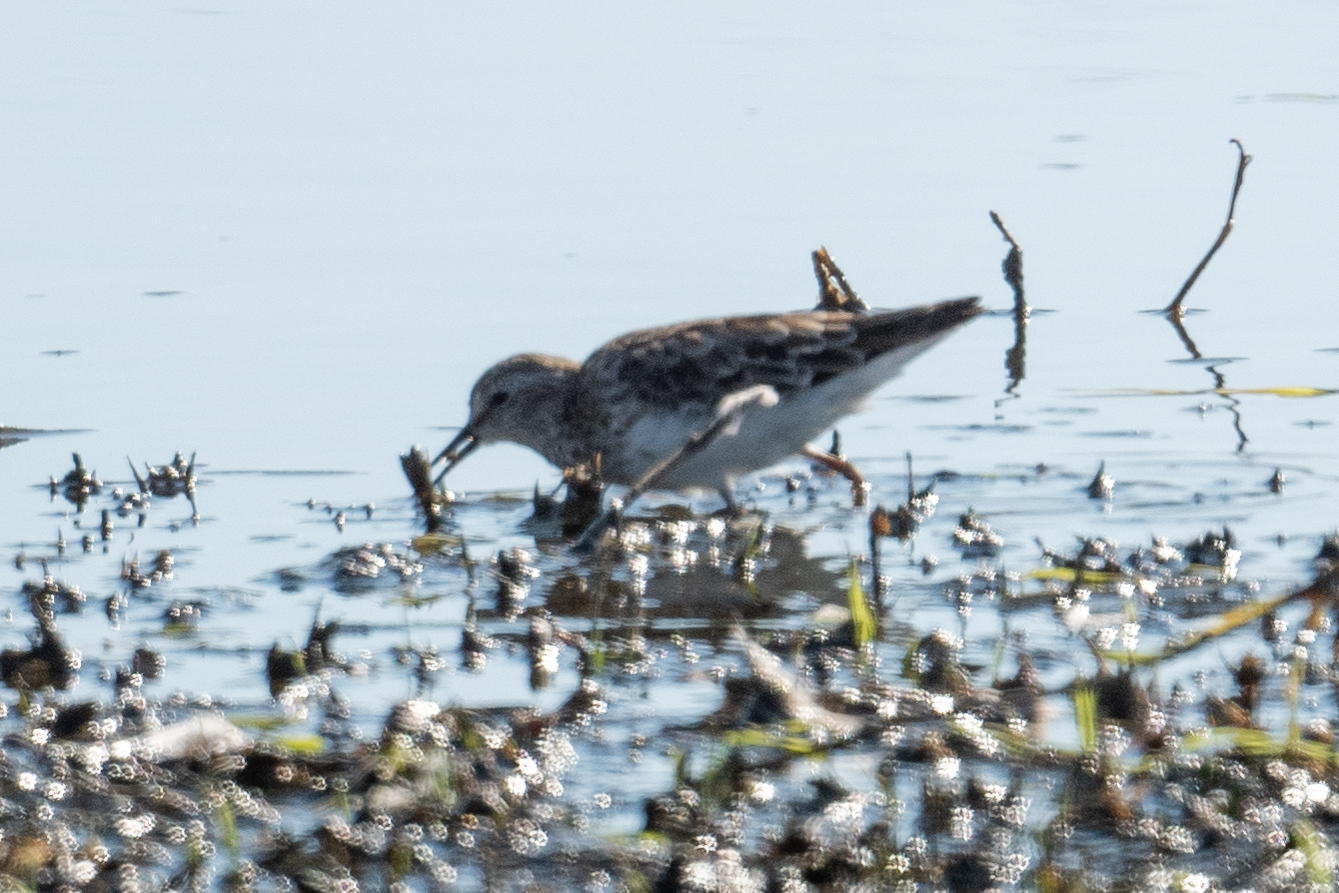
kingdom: Animalia
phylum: Chordata
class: Aves
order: Charadriiformes
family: Scolopacidae
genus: Calidris
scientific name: Calidris minutilla
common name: Least sandpiper
